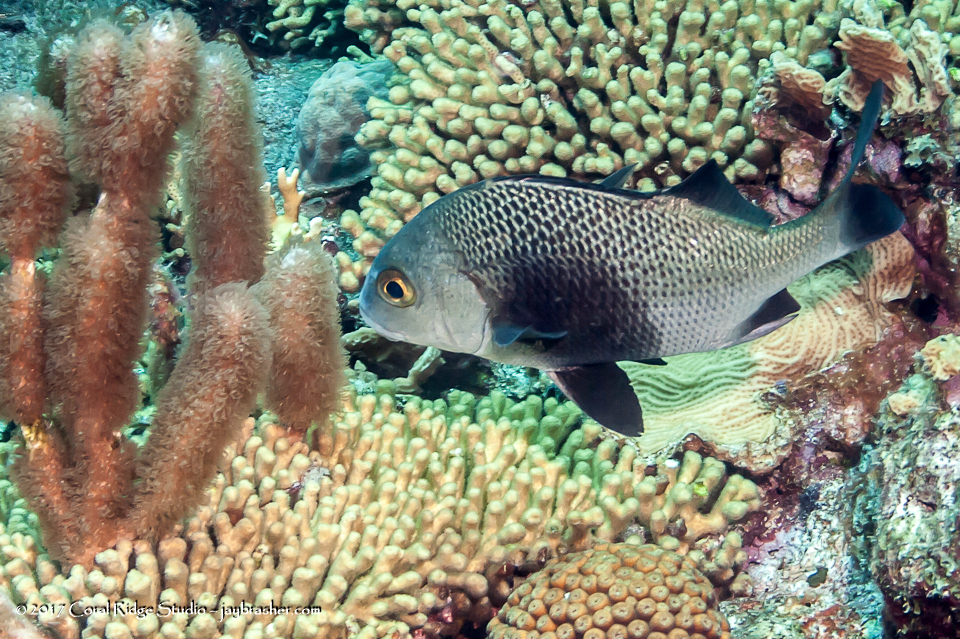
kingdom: Animalia
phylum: Chordata
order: Perciformes
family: Haemulidae
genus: Anisotremus
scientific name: Anisotremus surinamensis
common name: Black margate
